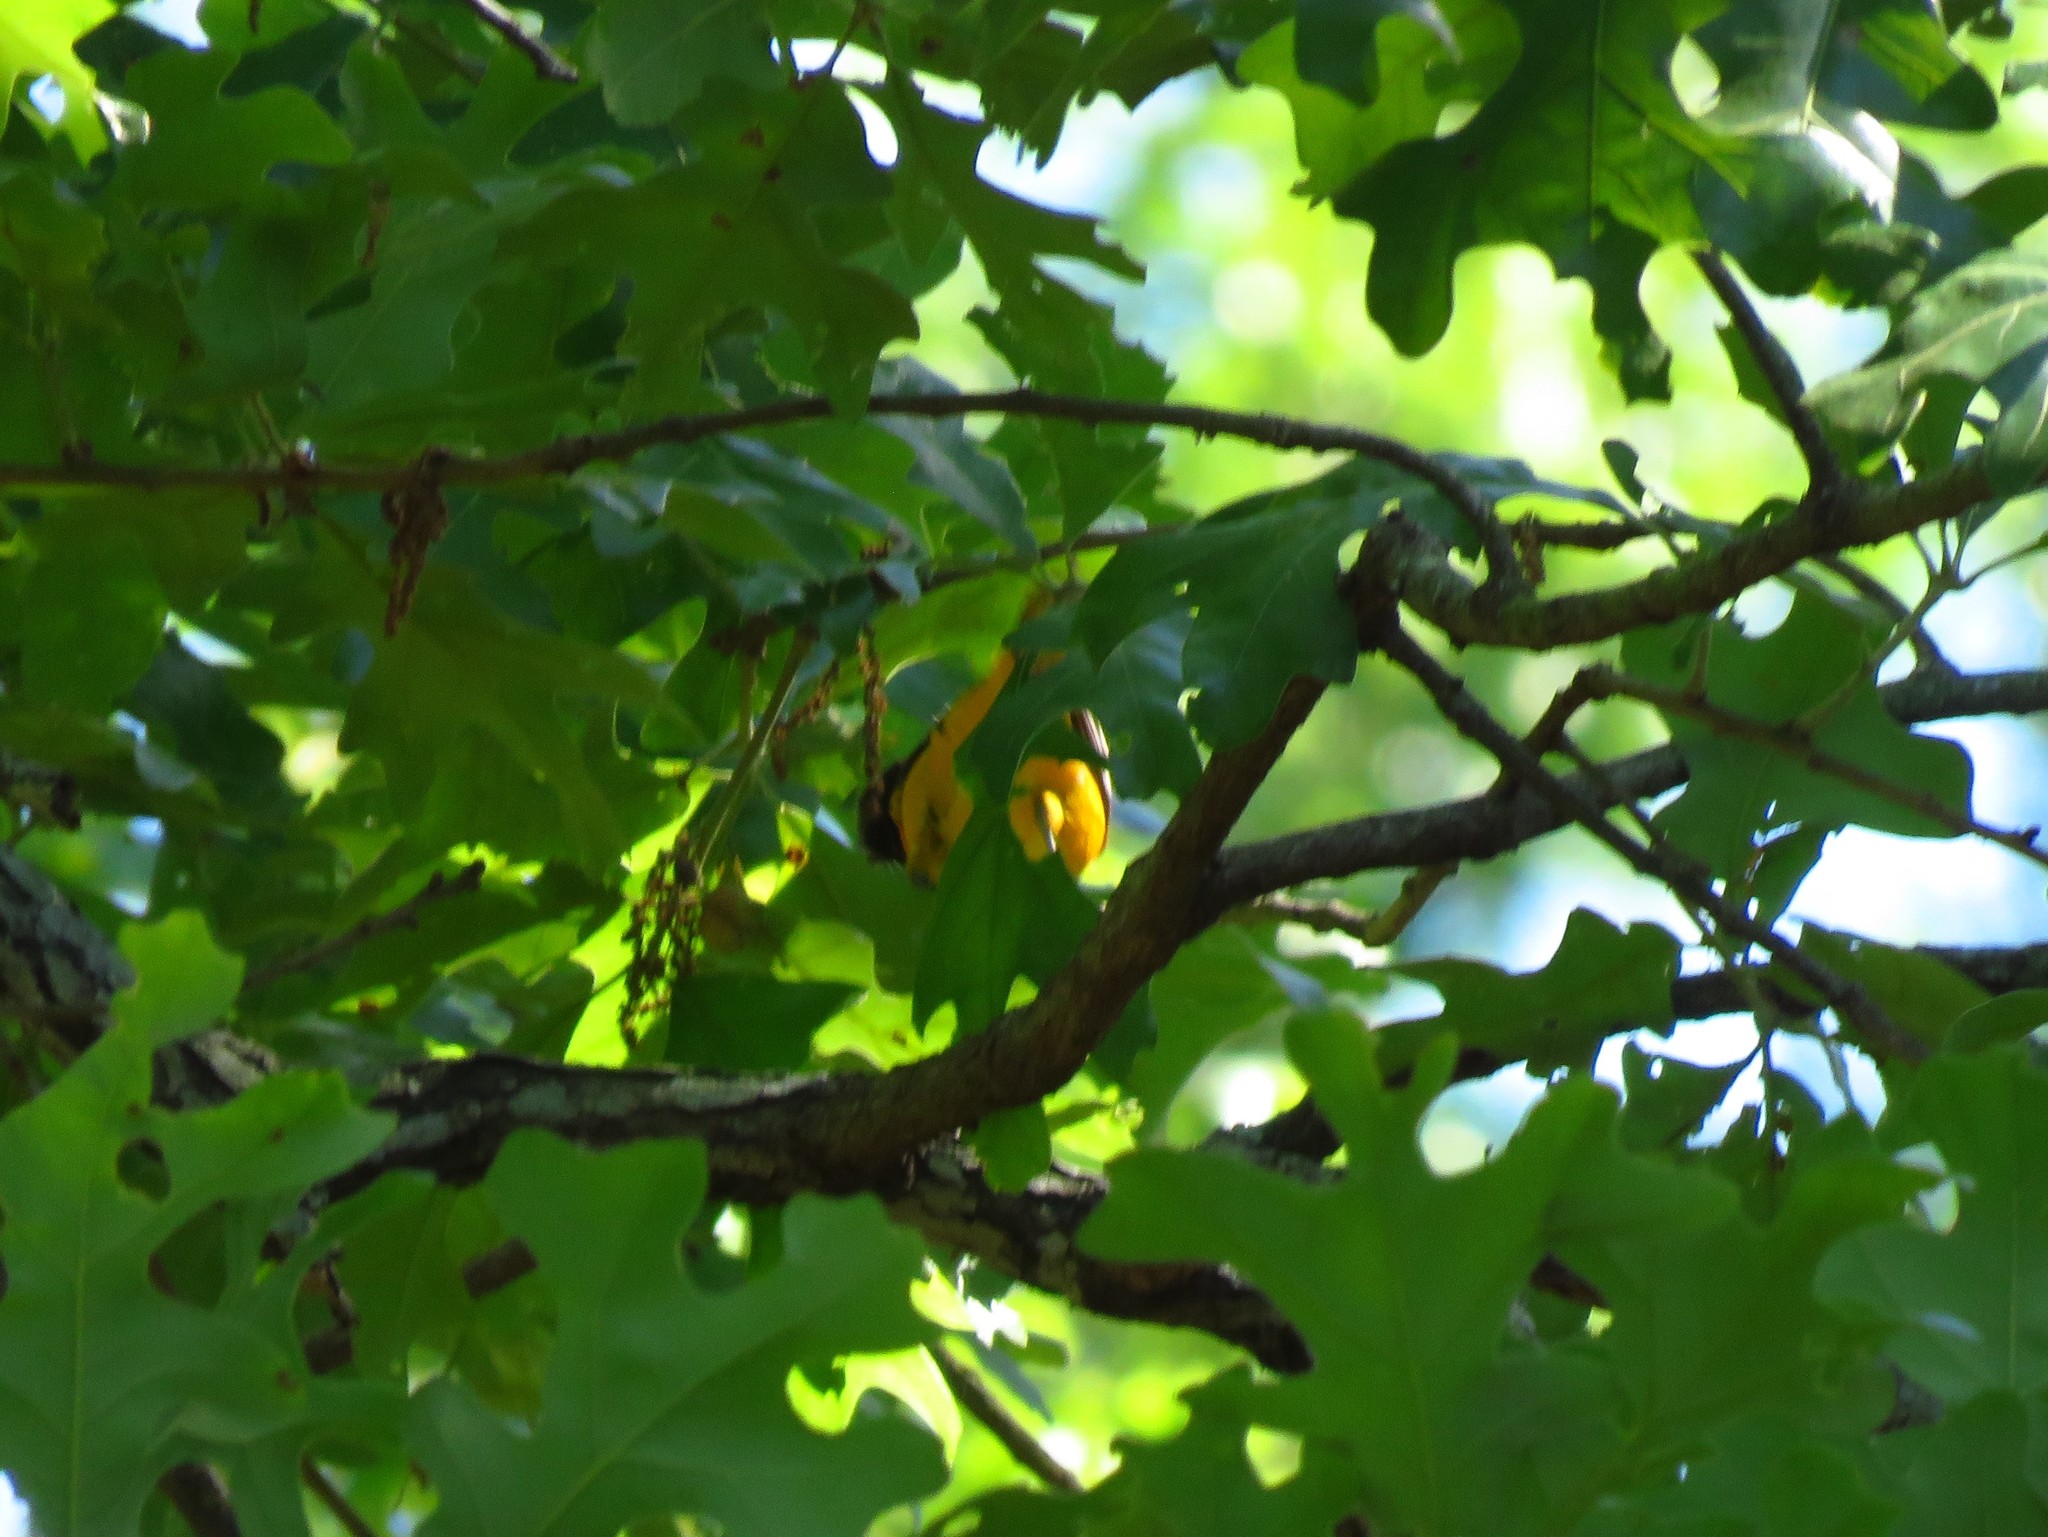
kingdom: Animalia
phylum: Chordata
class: Aves
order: Passeriformes
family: Icteridae
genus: Icterus
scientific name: Icterus galbula
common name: Baltimore oriole
